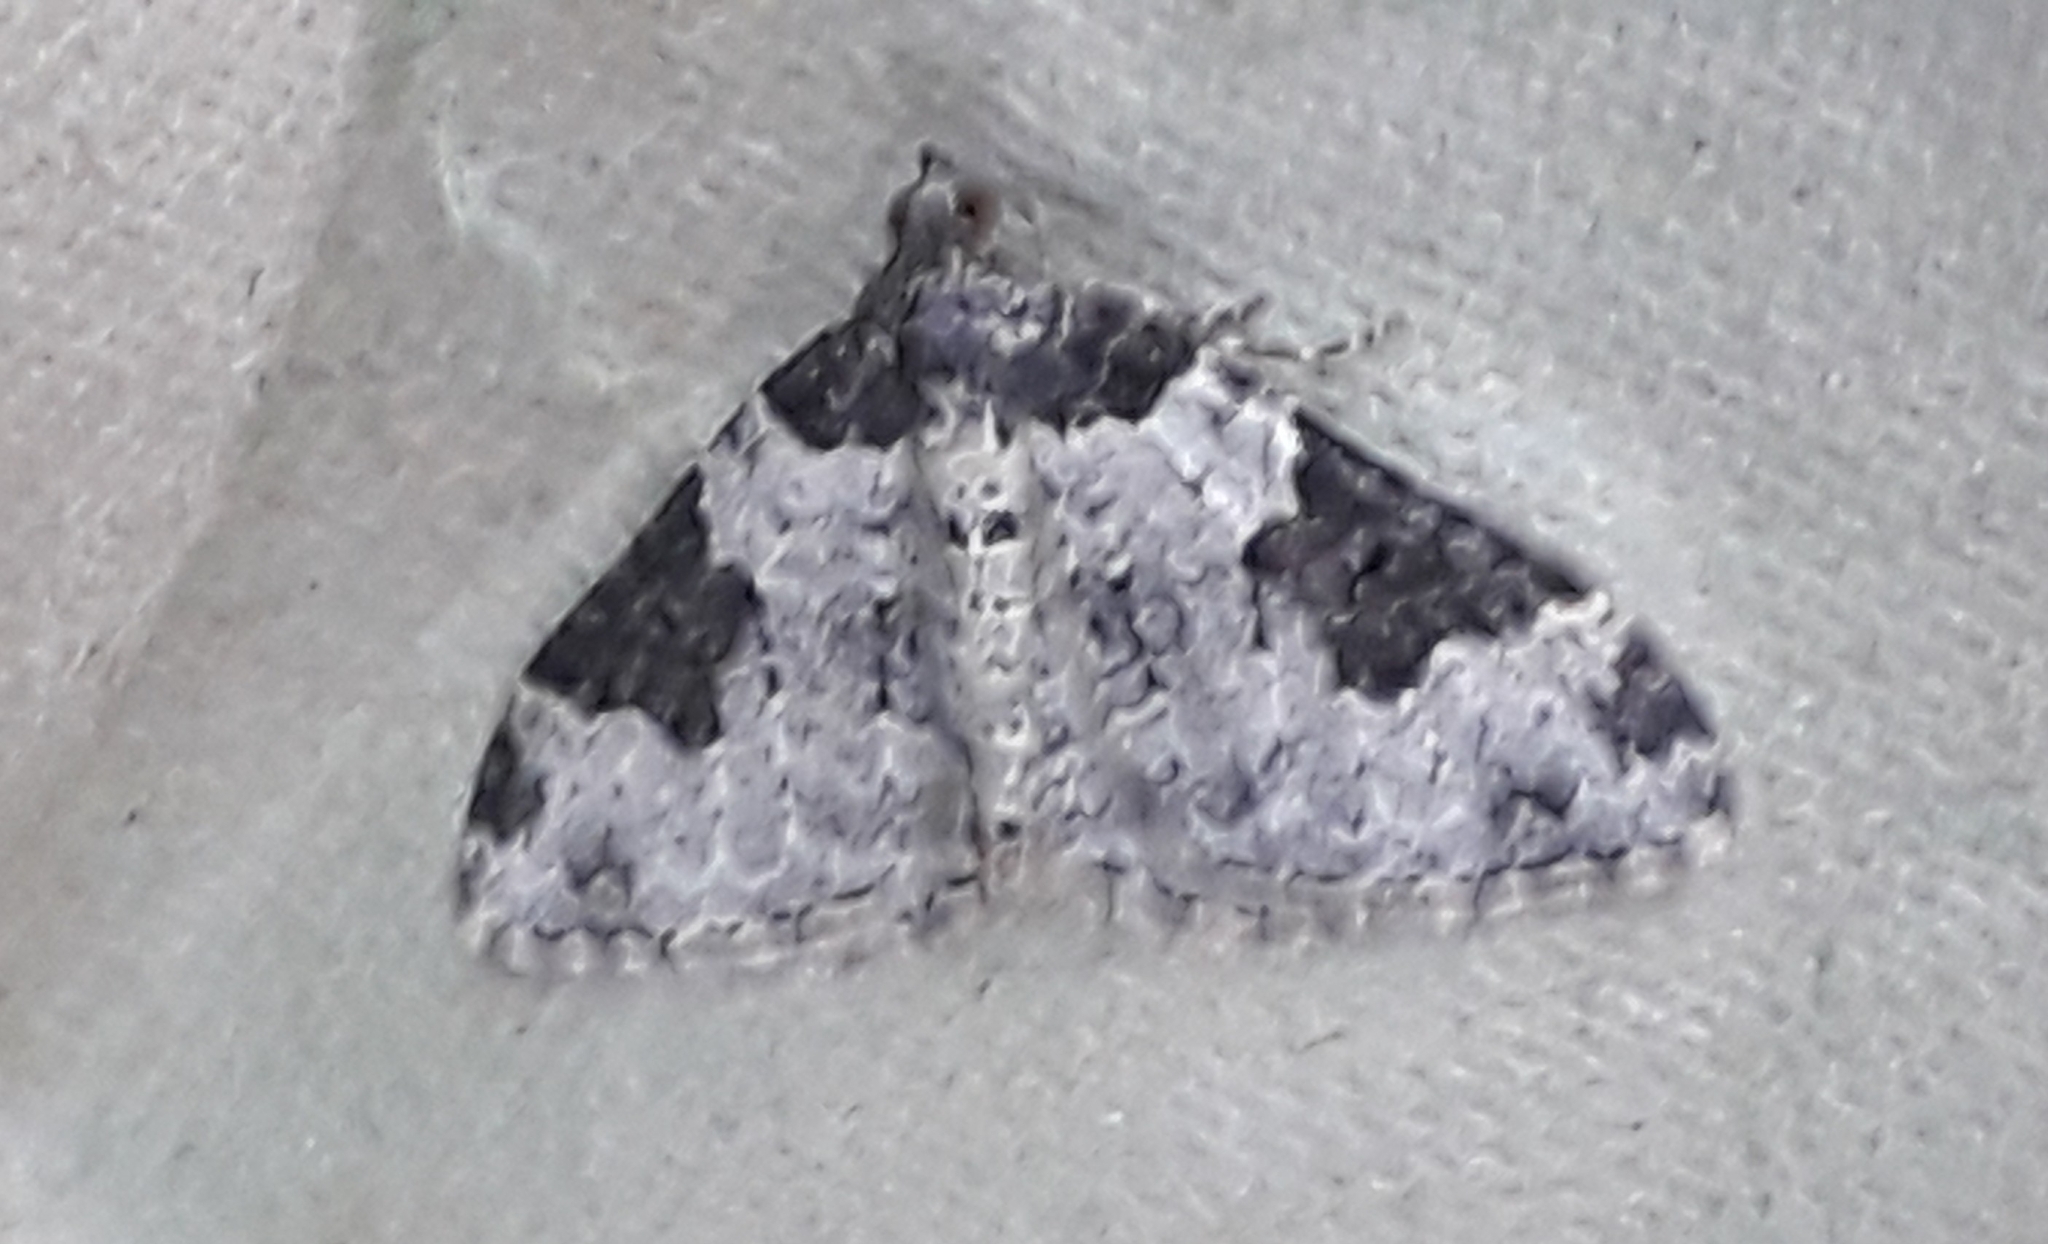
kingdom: Animalia
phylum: Arthropoda
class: Insecta
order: Lepidoptera
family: Geometridae
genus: Xanthorhoe
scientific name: Xanthorhoe fluctuata
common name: Garden carpet
